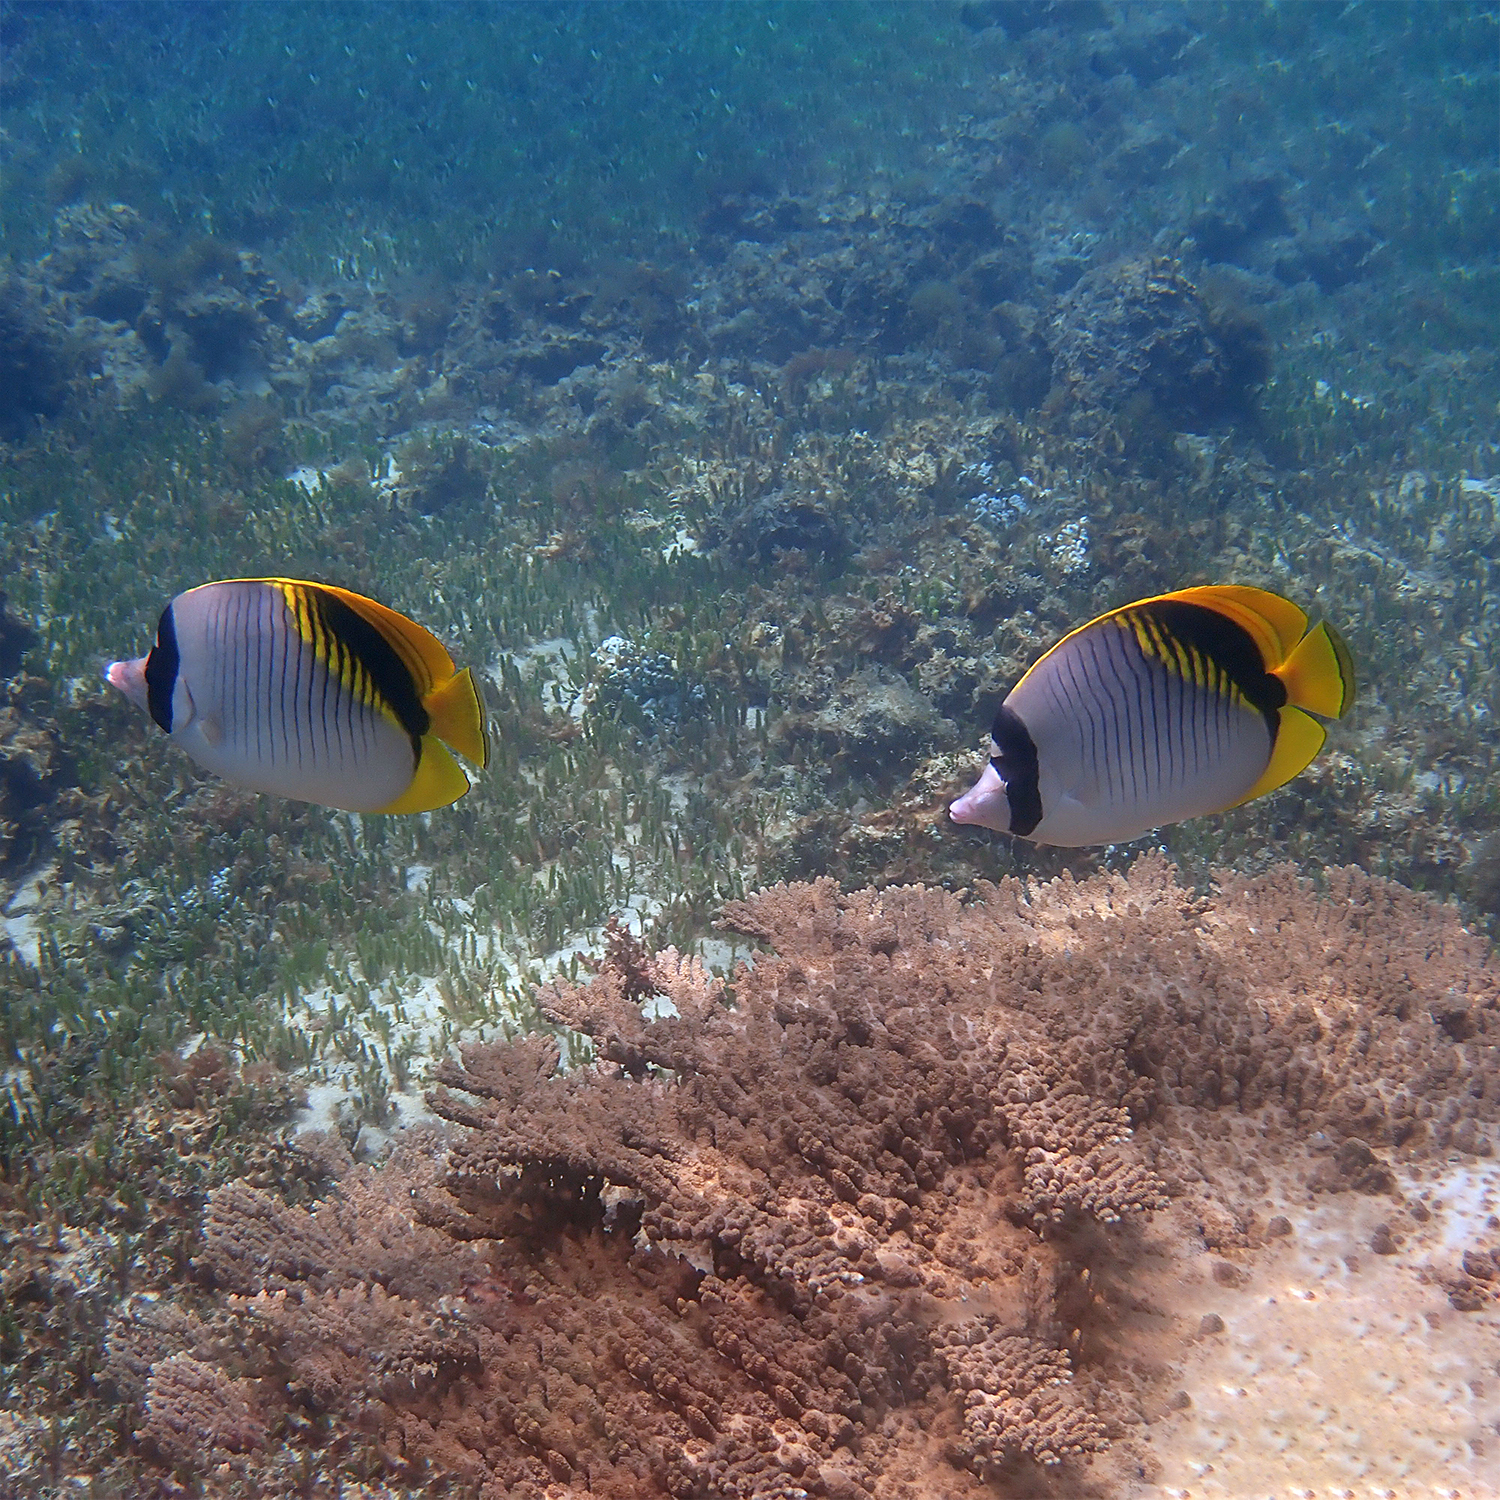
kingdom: Animalia
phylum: Chordata
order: Perciformes
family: Chaetodontidae
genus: Chaetodon
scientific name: Chaetodon lineolatus
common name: Lined butterflyfish
